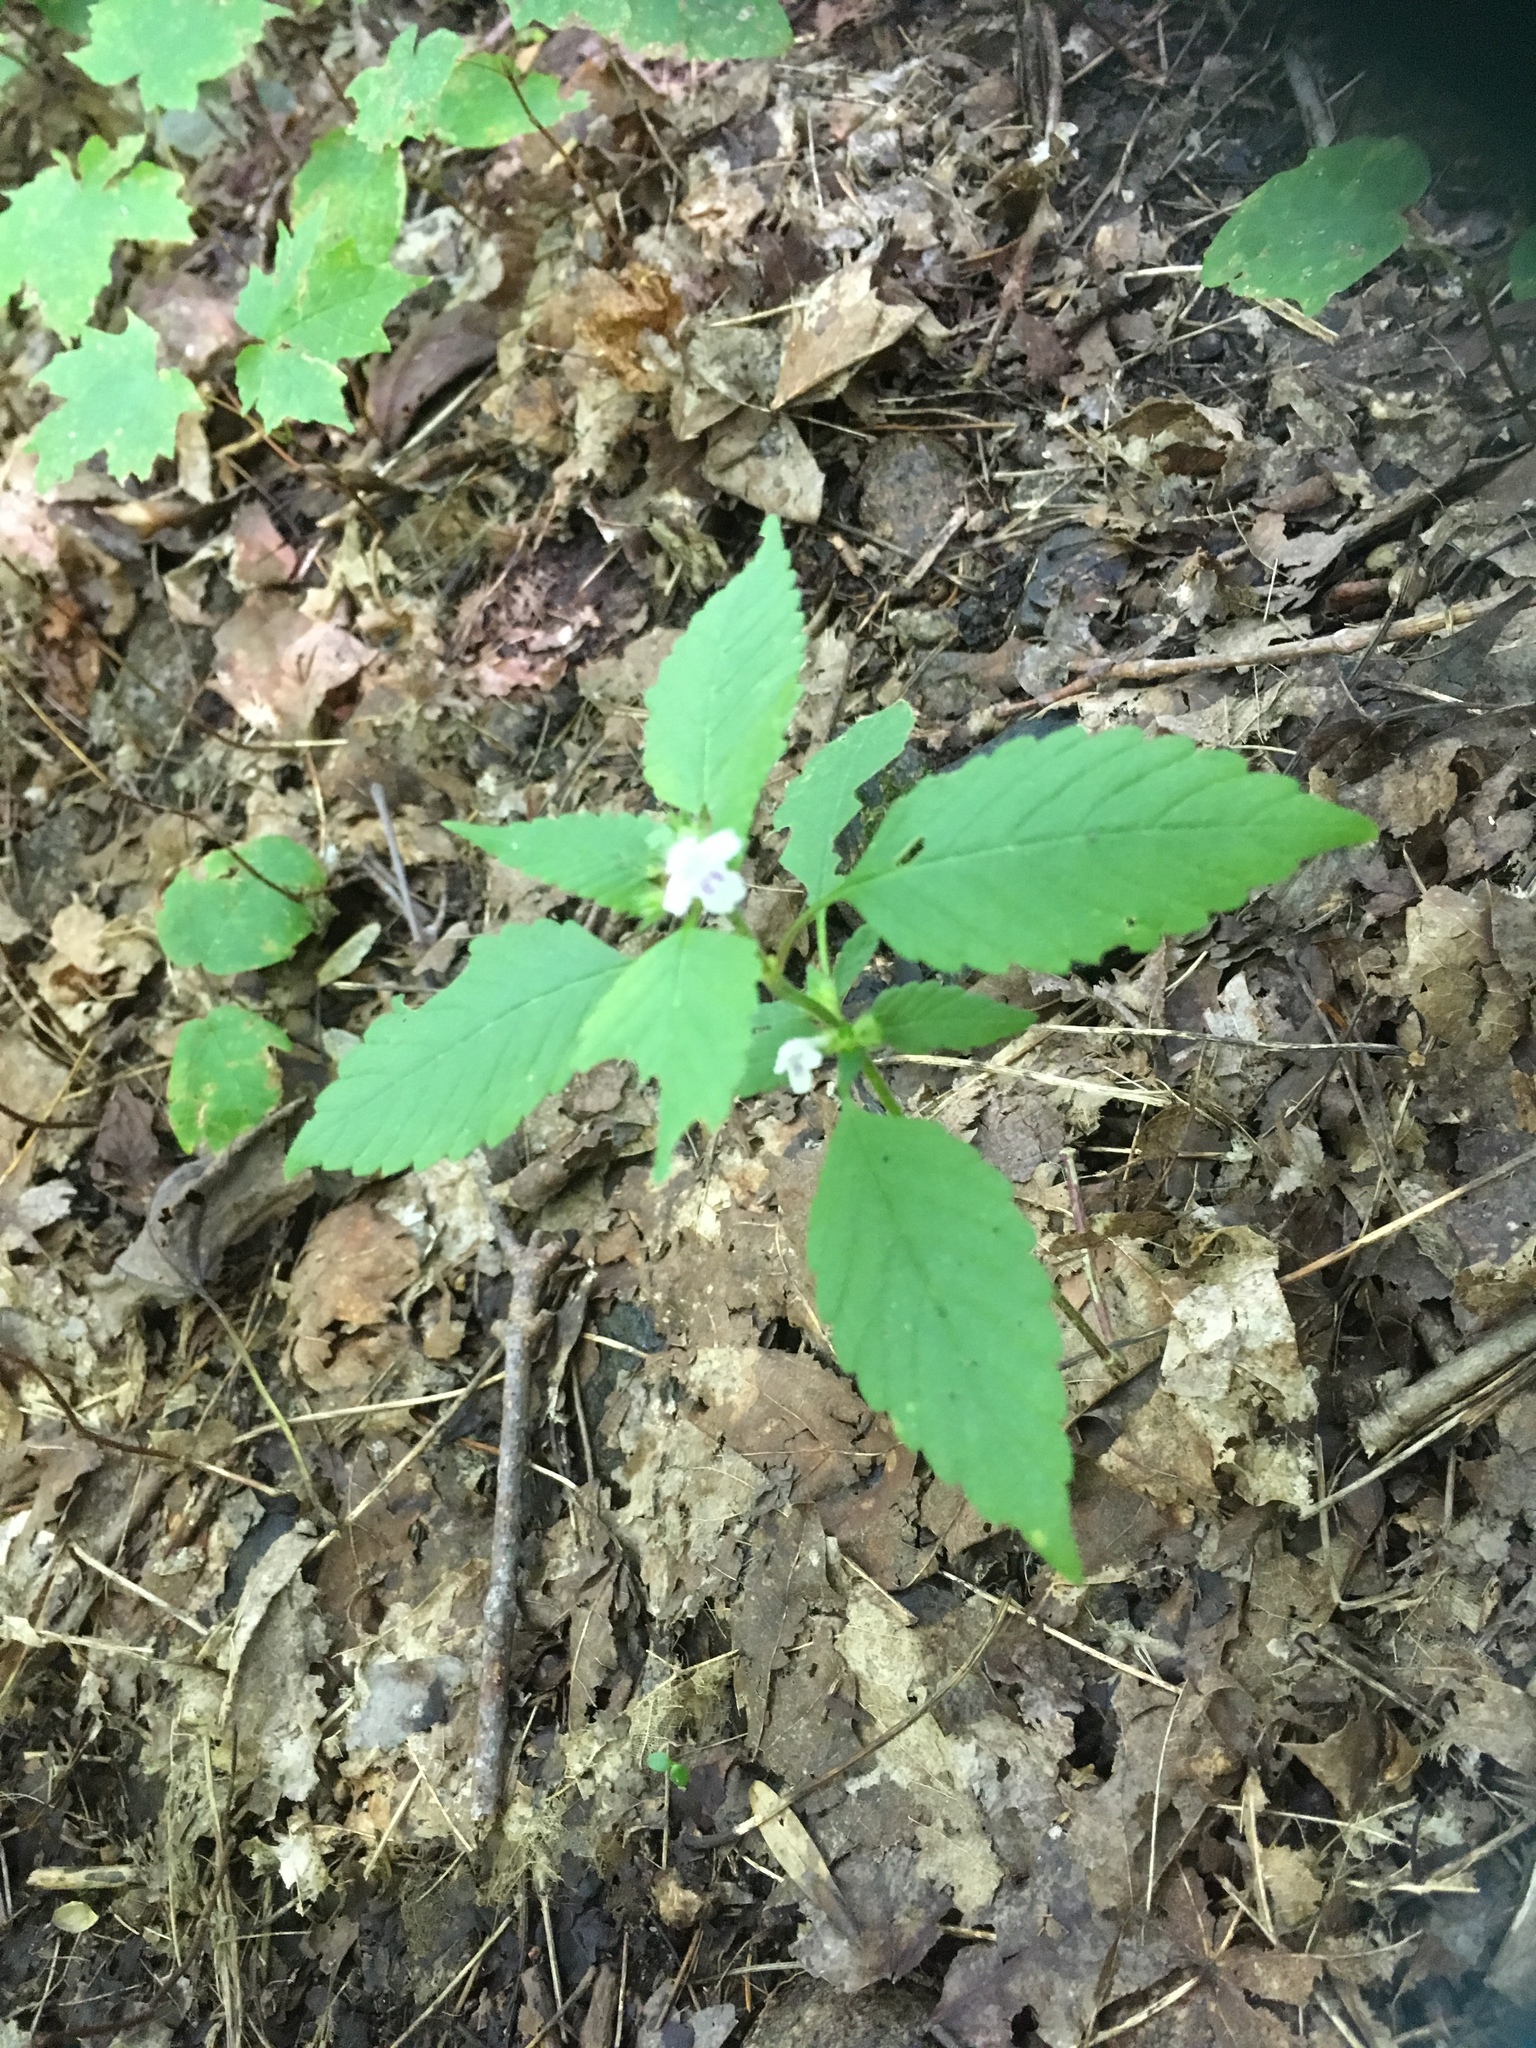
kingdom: Plantae
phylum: Tracheophyta
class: Magnoliopsida
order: Lamiales
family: Lamiaceae
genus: Galeopsis
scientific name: Galeopsis bifida
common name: Bifid hemp-nettle
